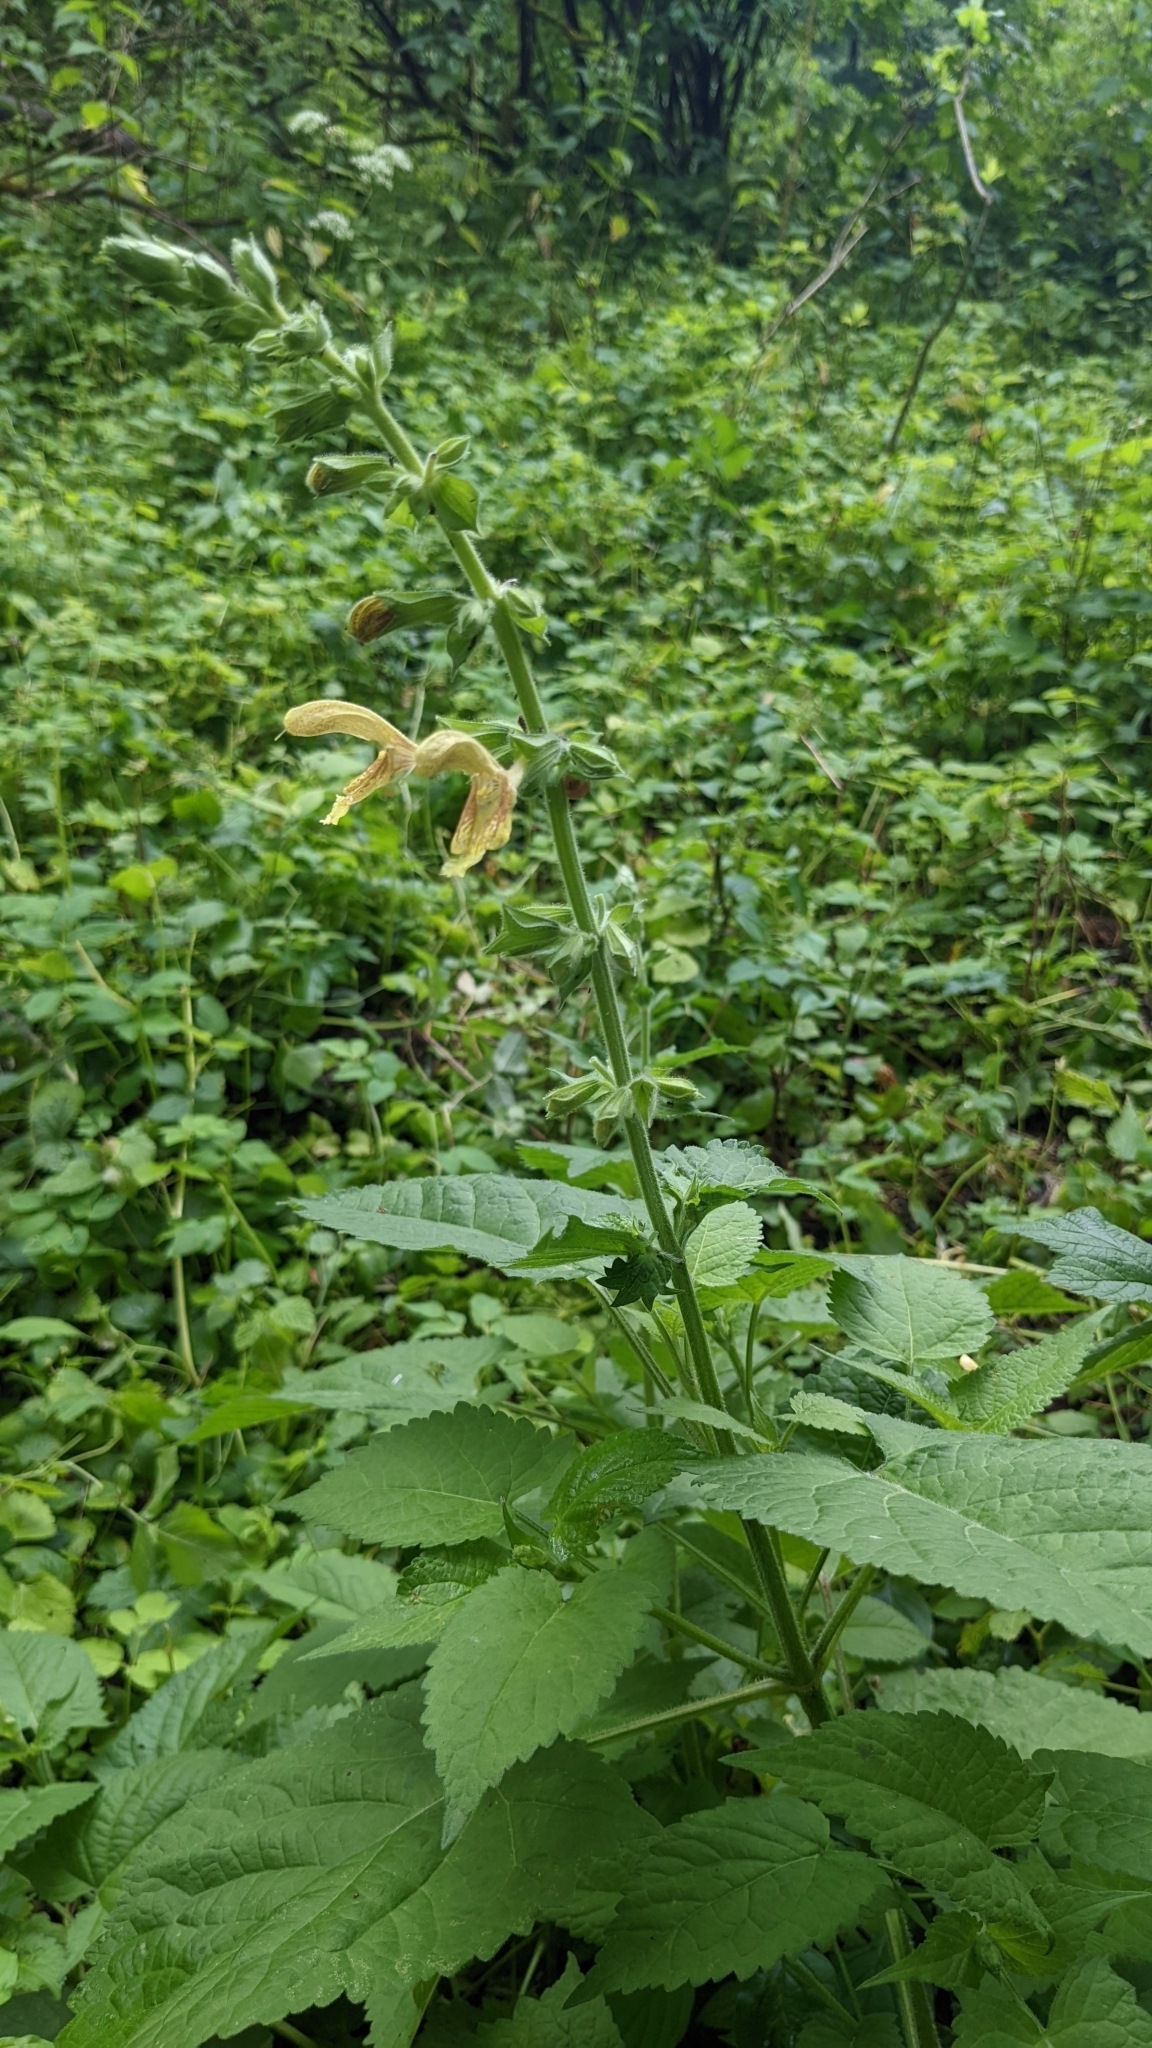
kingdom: Plantae
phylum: Tracheophyta
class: Magnoliopsida
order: Lamiales
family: Lamiaceae
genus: Salvia
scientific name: Salvia glutinosa
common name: Sticky clary
